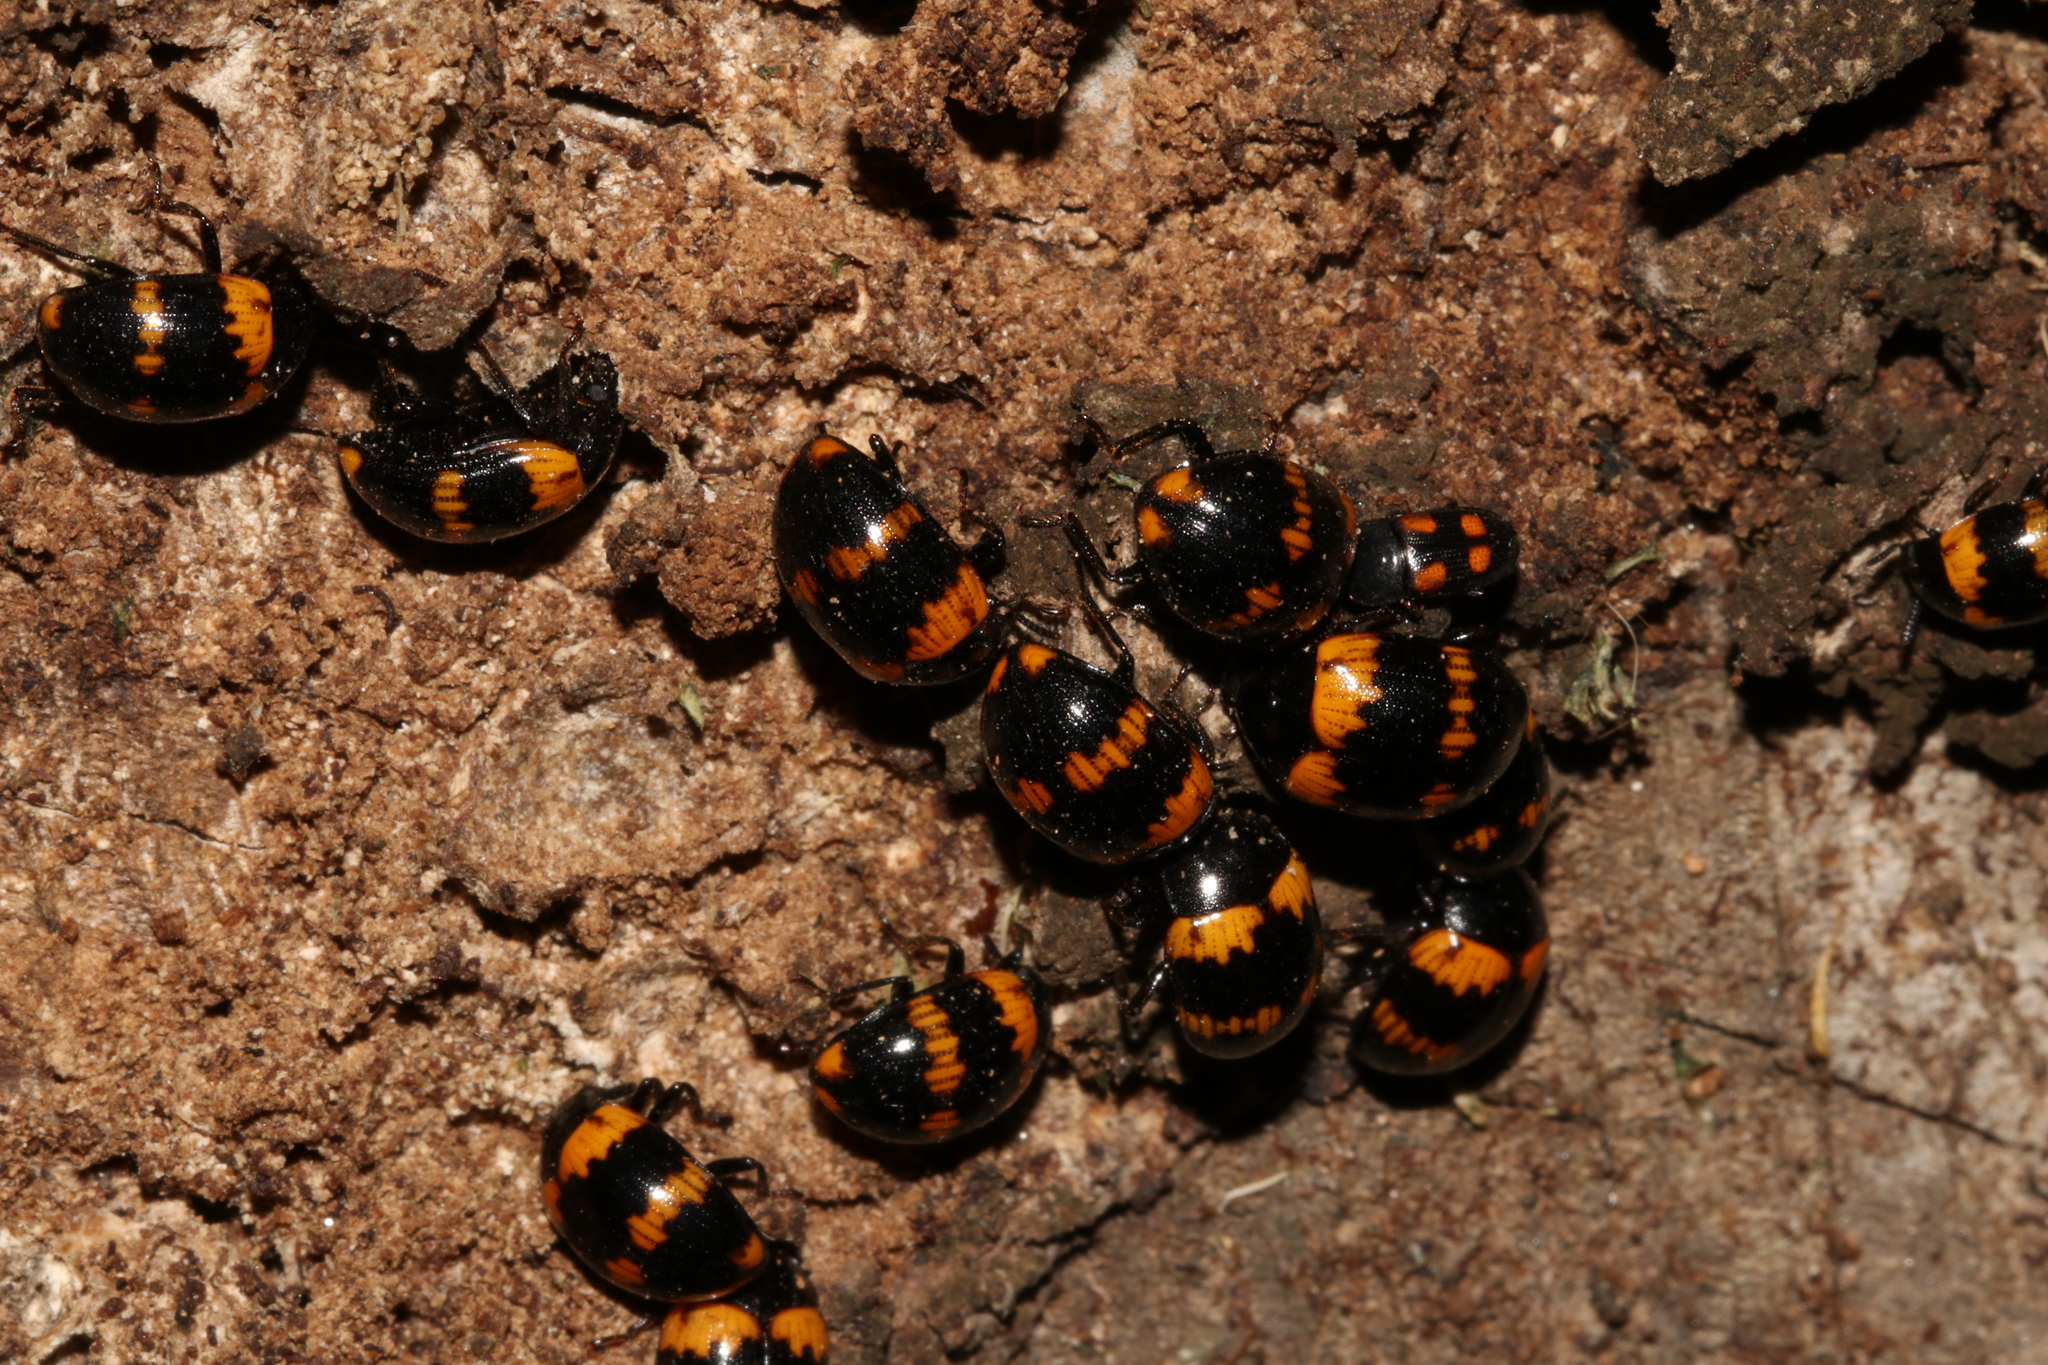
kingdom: Animalia
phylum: Arthropoda
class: Insecta
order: Coleoptera
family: Tenebrionidae
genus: Diaperis
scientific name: Diaperis boleti
